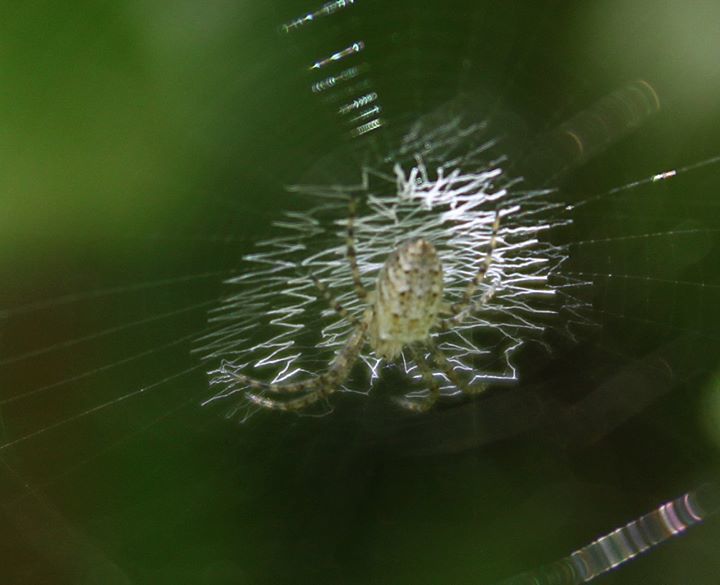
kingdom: Animalia
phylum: Arthropoda
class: Arachnida
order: Araneae
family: Araneidae
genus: Argiope
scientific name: Argiope bruennichi
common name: Wasp spider
